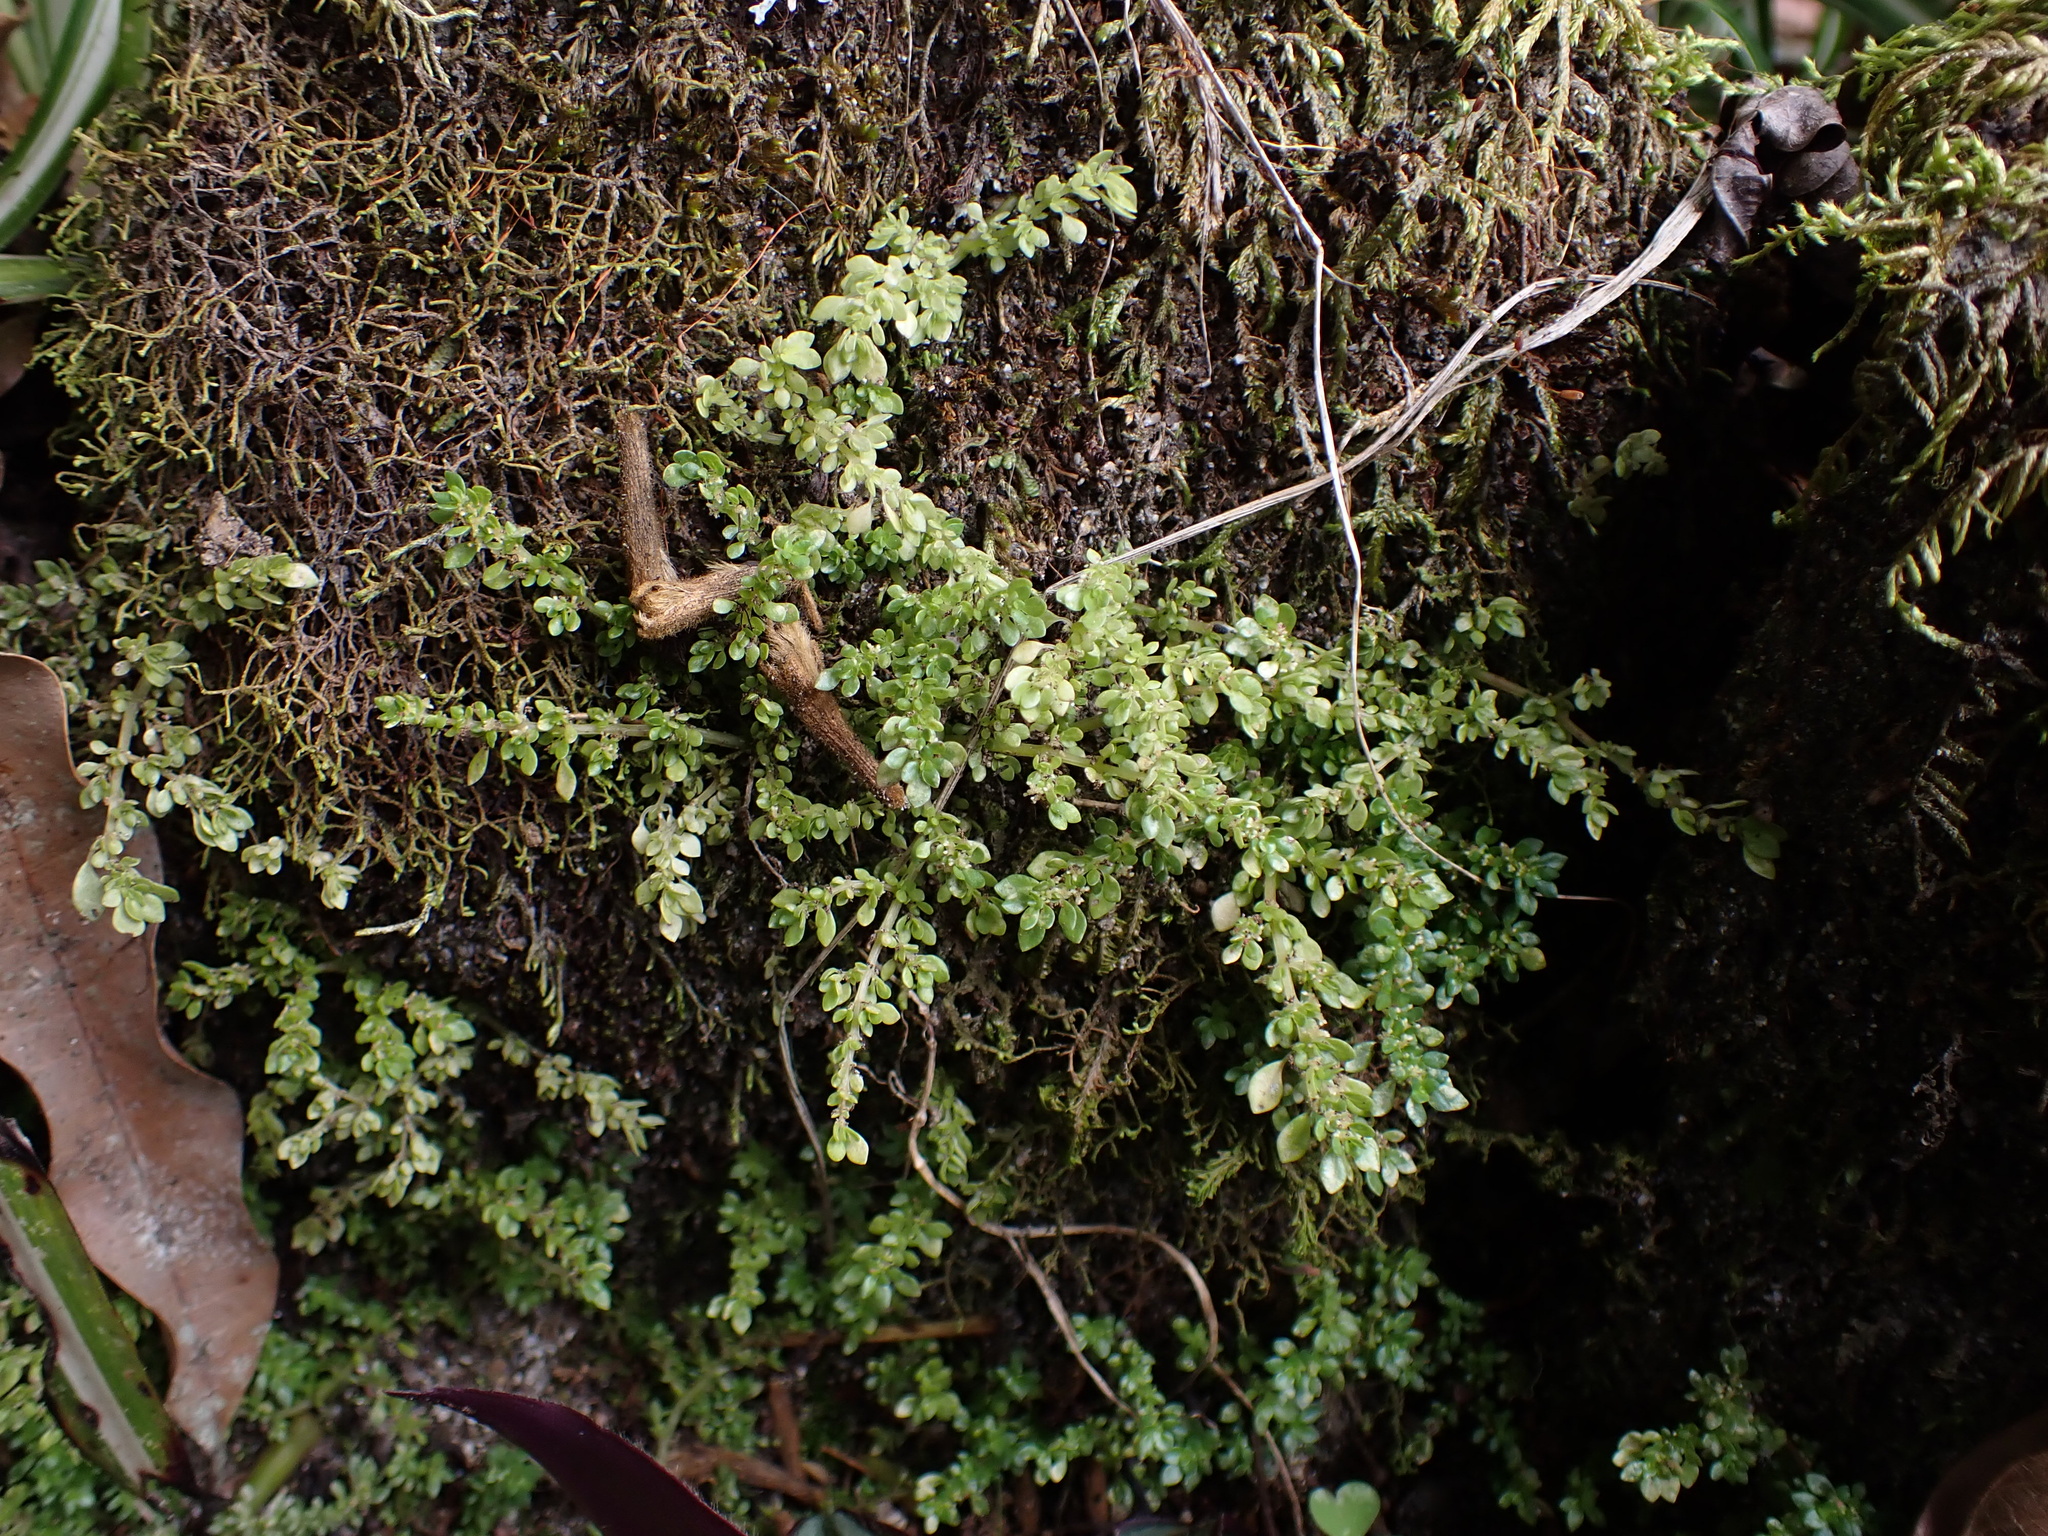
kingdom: Plantae
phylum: Tracheophyta
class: Magnoliopsida
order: Rosales
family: Urticaceae
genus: Pilea
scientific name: Pilea microphylla
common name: Artillery-plant
